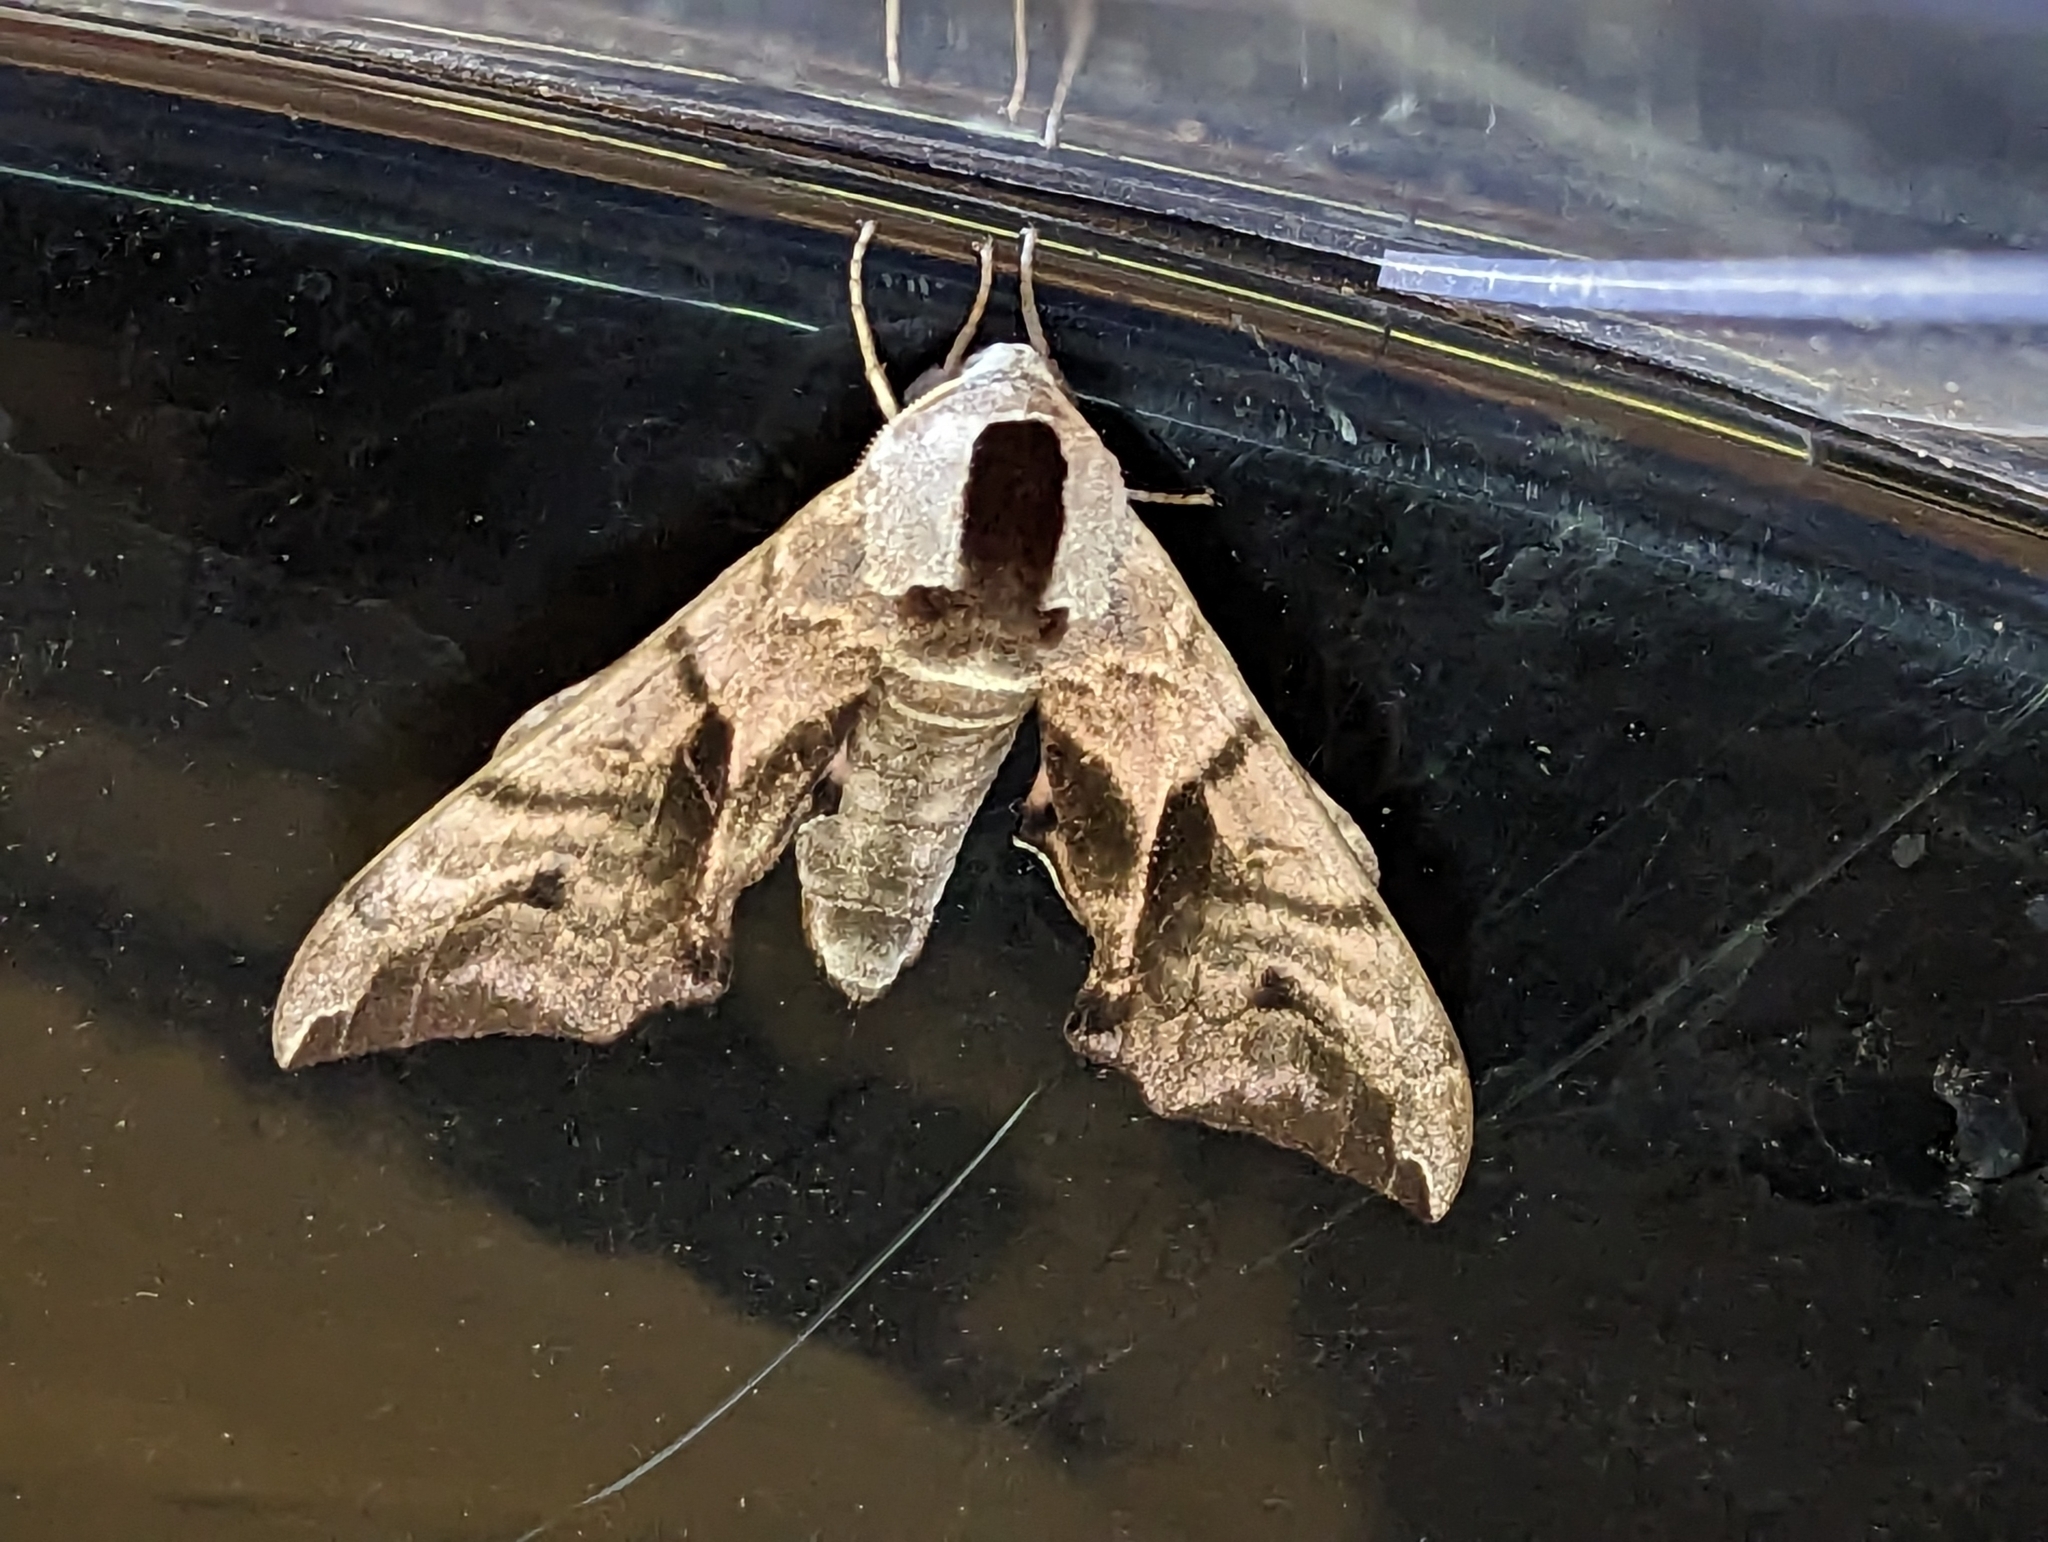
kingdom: Animalia
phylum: Arthropoda
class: Insecta
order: Lepidoptera
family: Sphingidae
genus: Smerinthus
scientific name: Smerinthus ocellata
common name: Eyed hawk-moth
